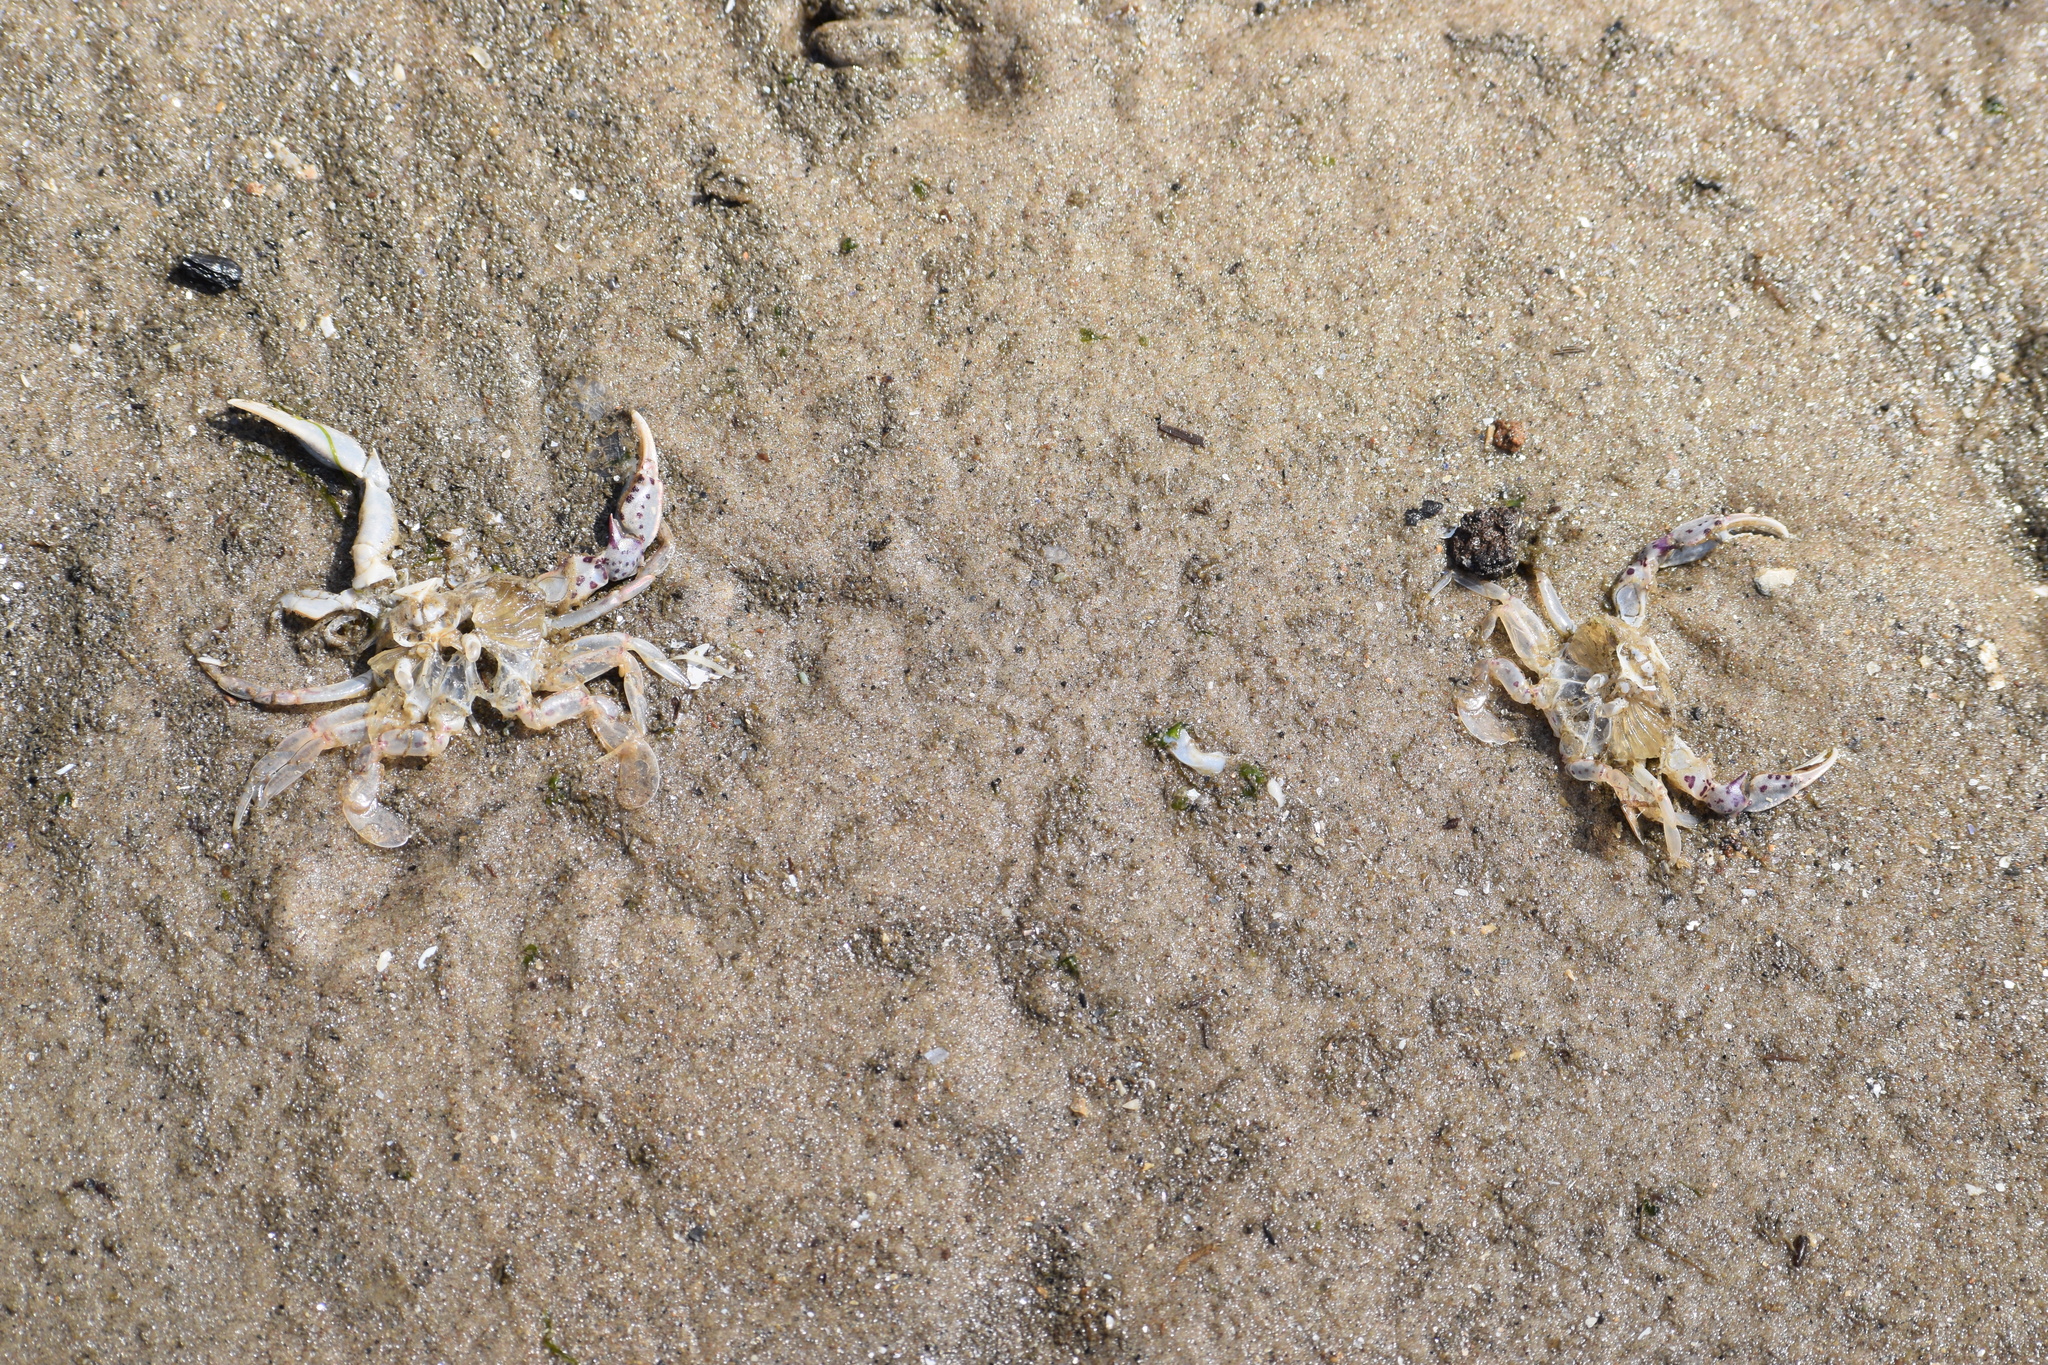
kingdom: Animalia
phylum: Arthropoda
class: Malacostraca
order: Decapoda
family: Ovalipidae
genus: Ovalipes
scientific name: Ovalipes ocellatus
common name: Lady crab
